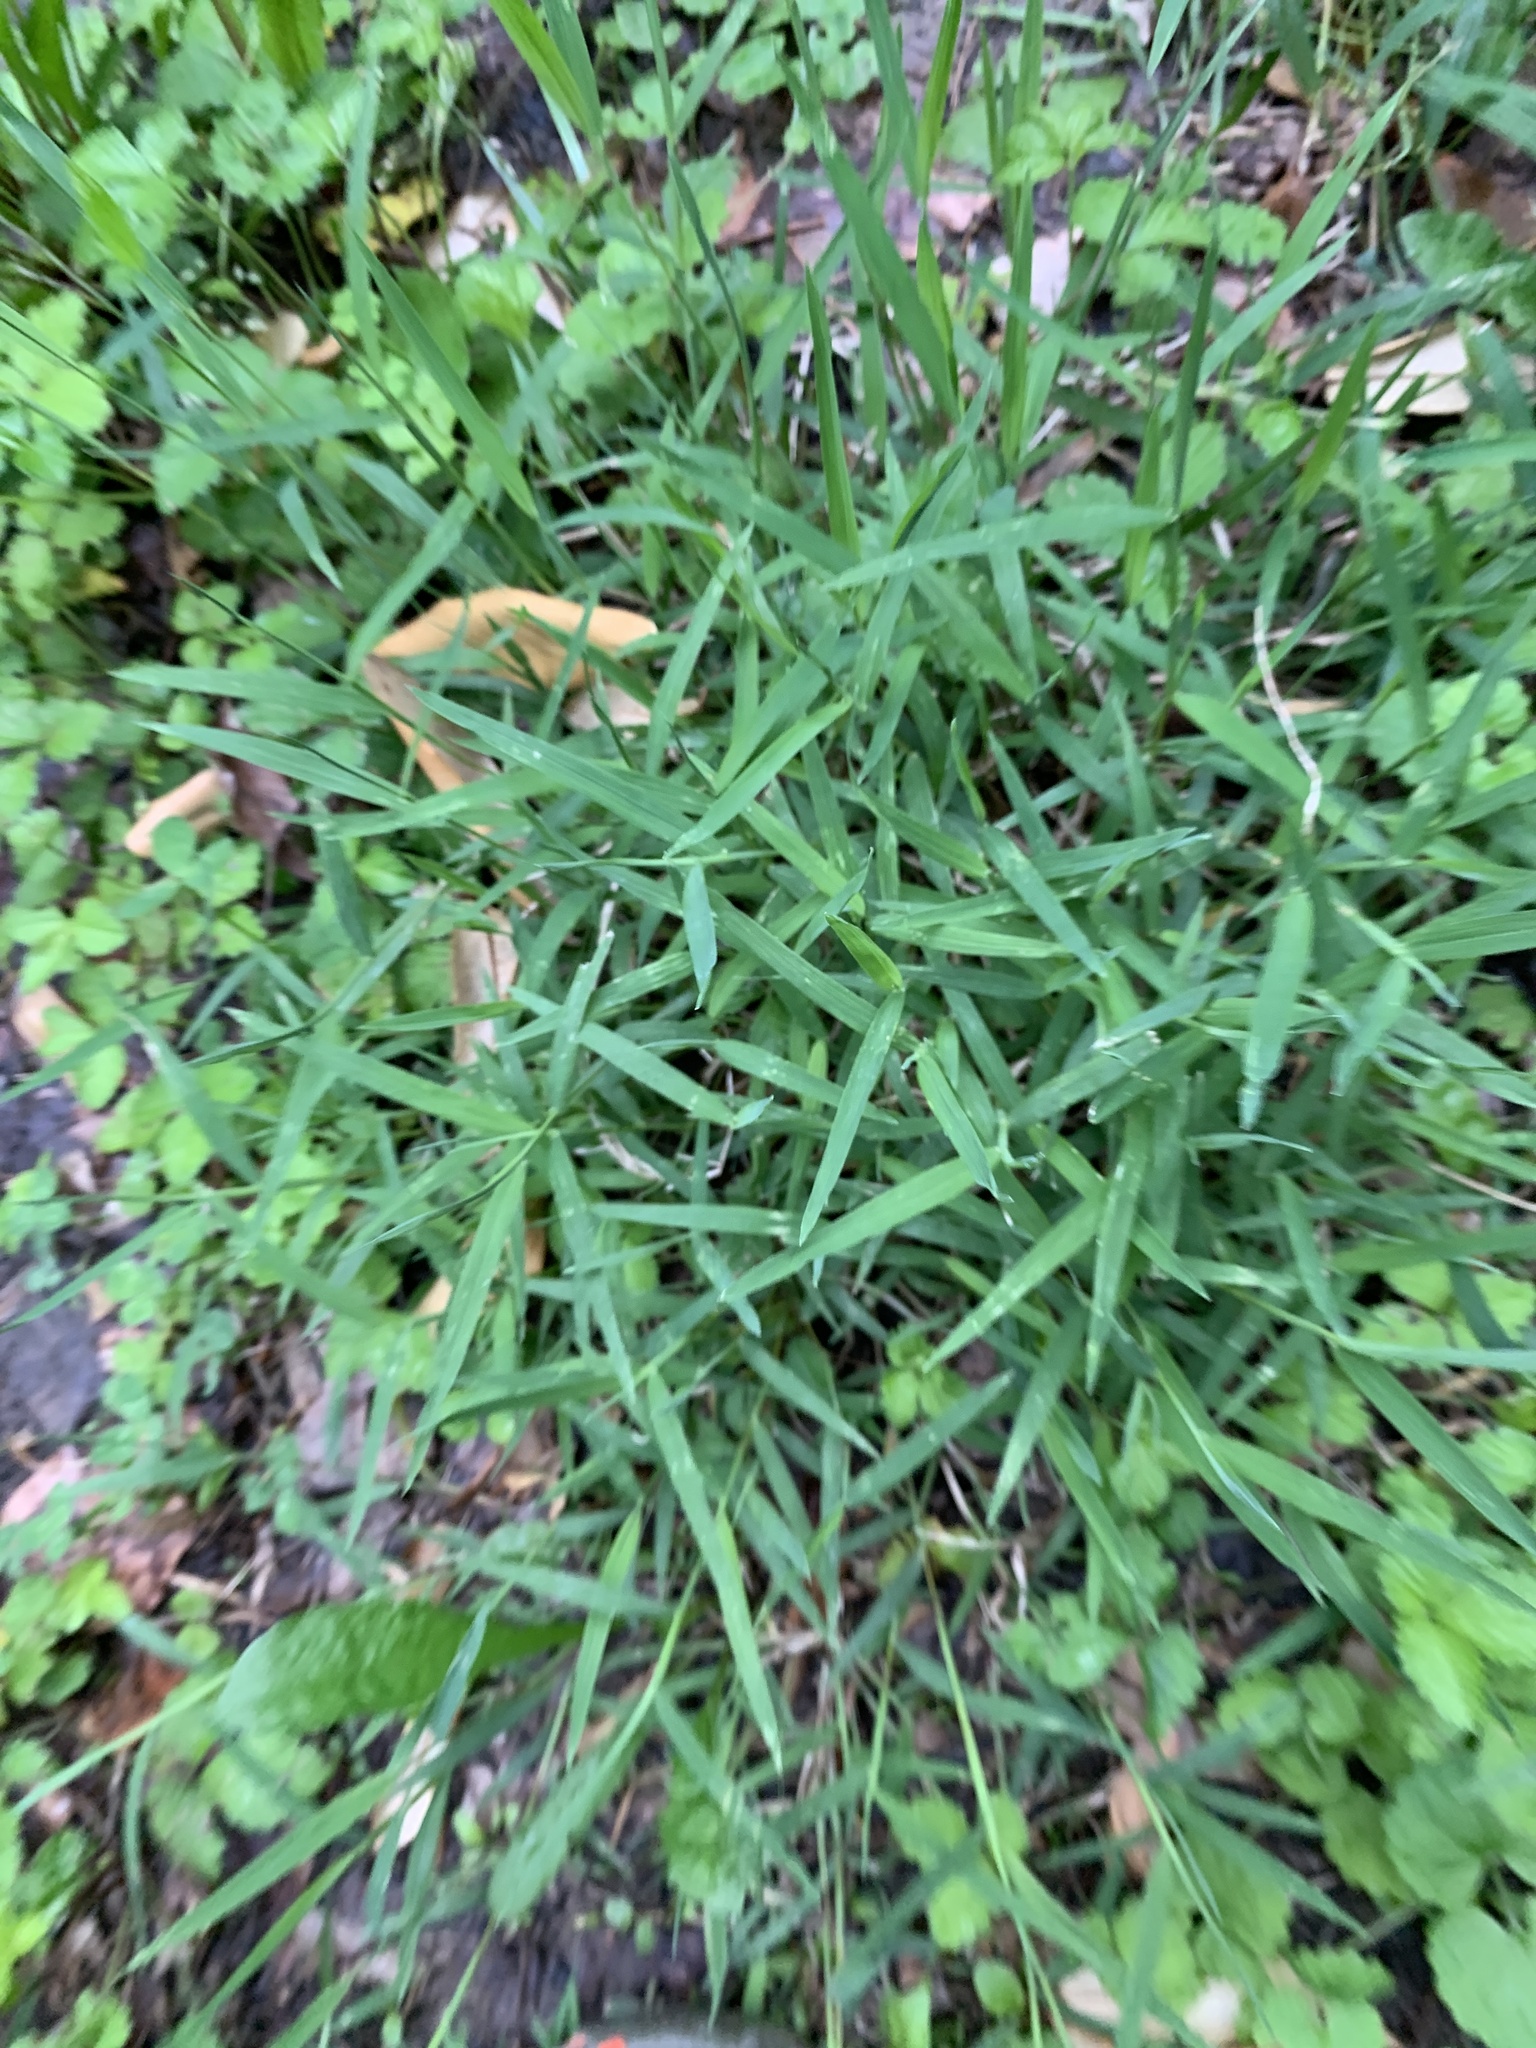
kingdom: Plantae
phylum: Tracheophyta
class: Liliopsida
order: Poales
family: Poaceae
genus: Muhlenbergia
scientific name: Muhlenbergia schreberi
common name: Nimblewill
